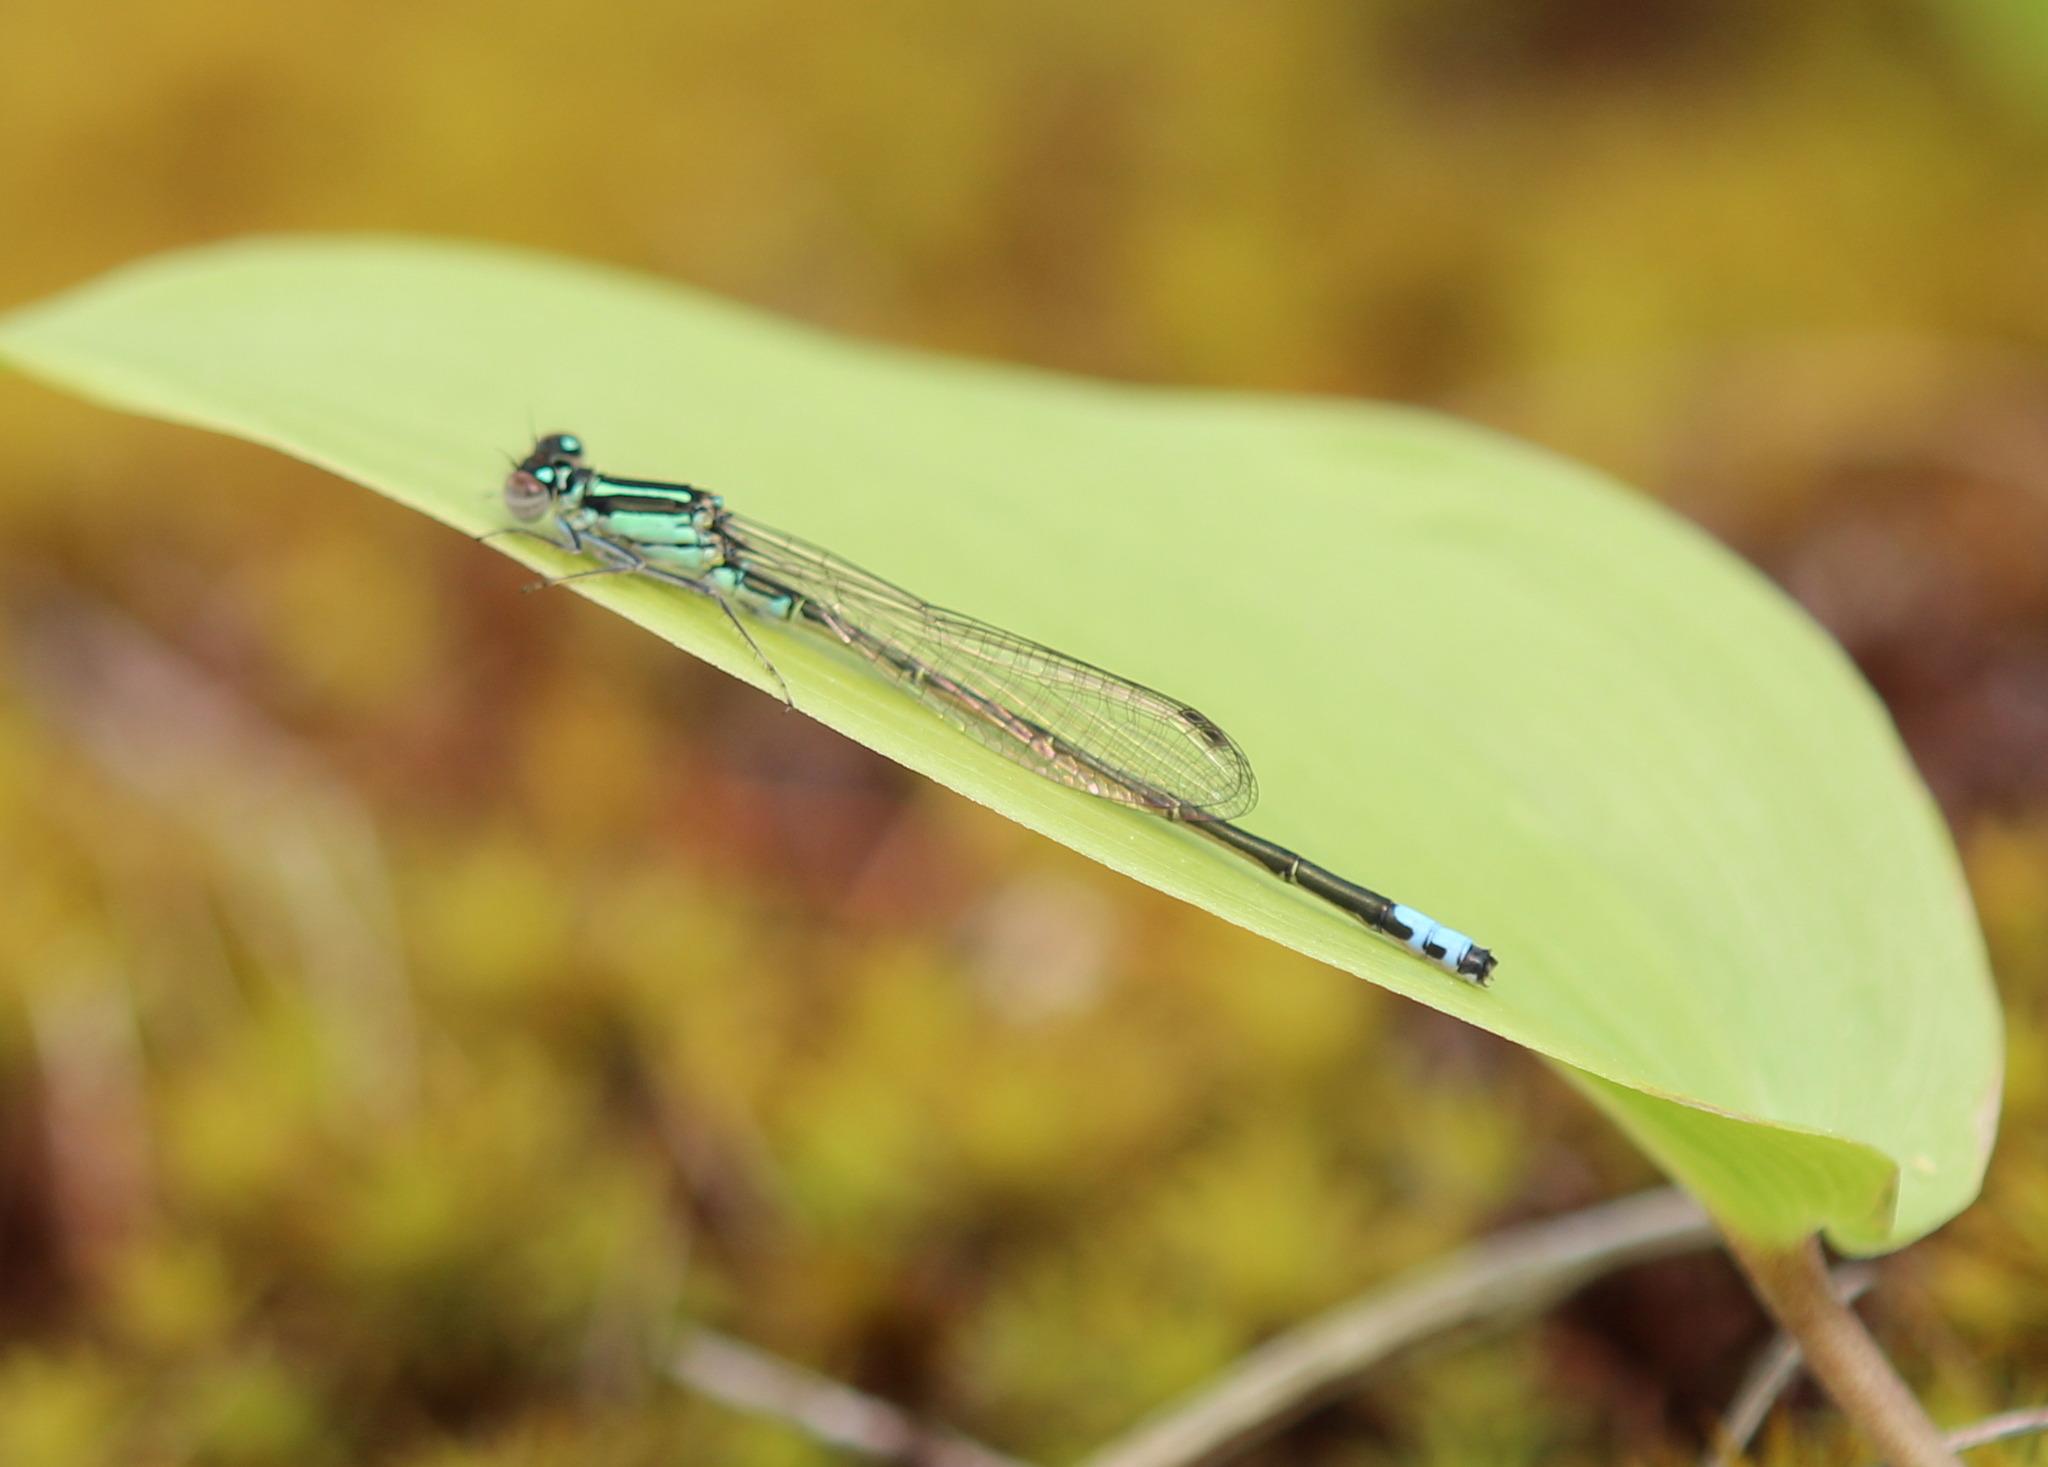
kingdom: Animalia
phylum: Arthropoda
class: Insecta
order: Odonata
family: Coenagrionidae
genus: Ischnura
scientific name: Ischnura verticalis
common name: Eastern forktail
